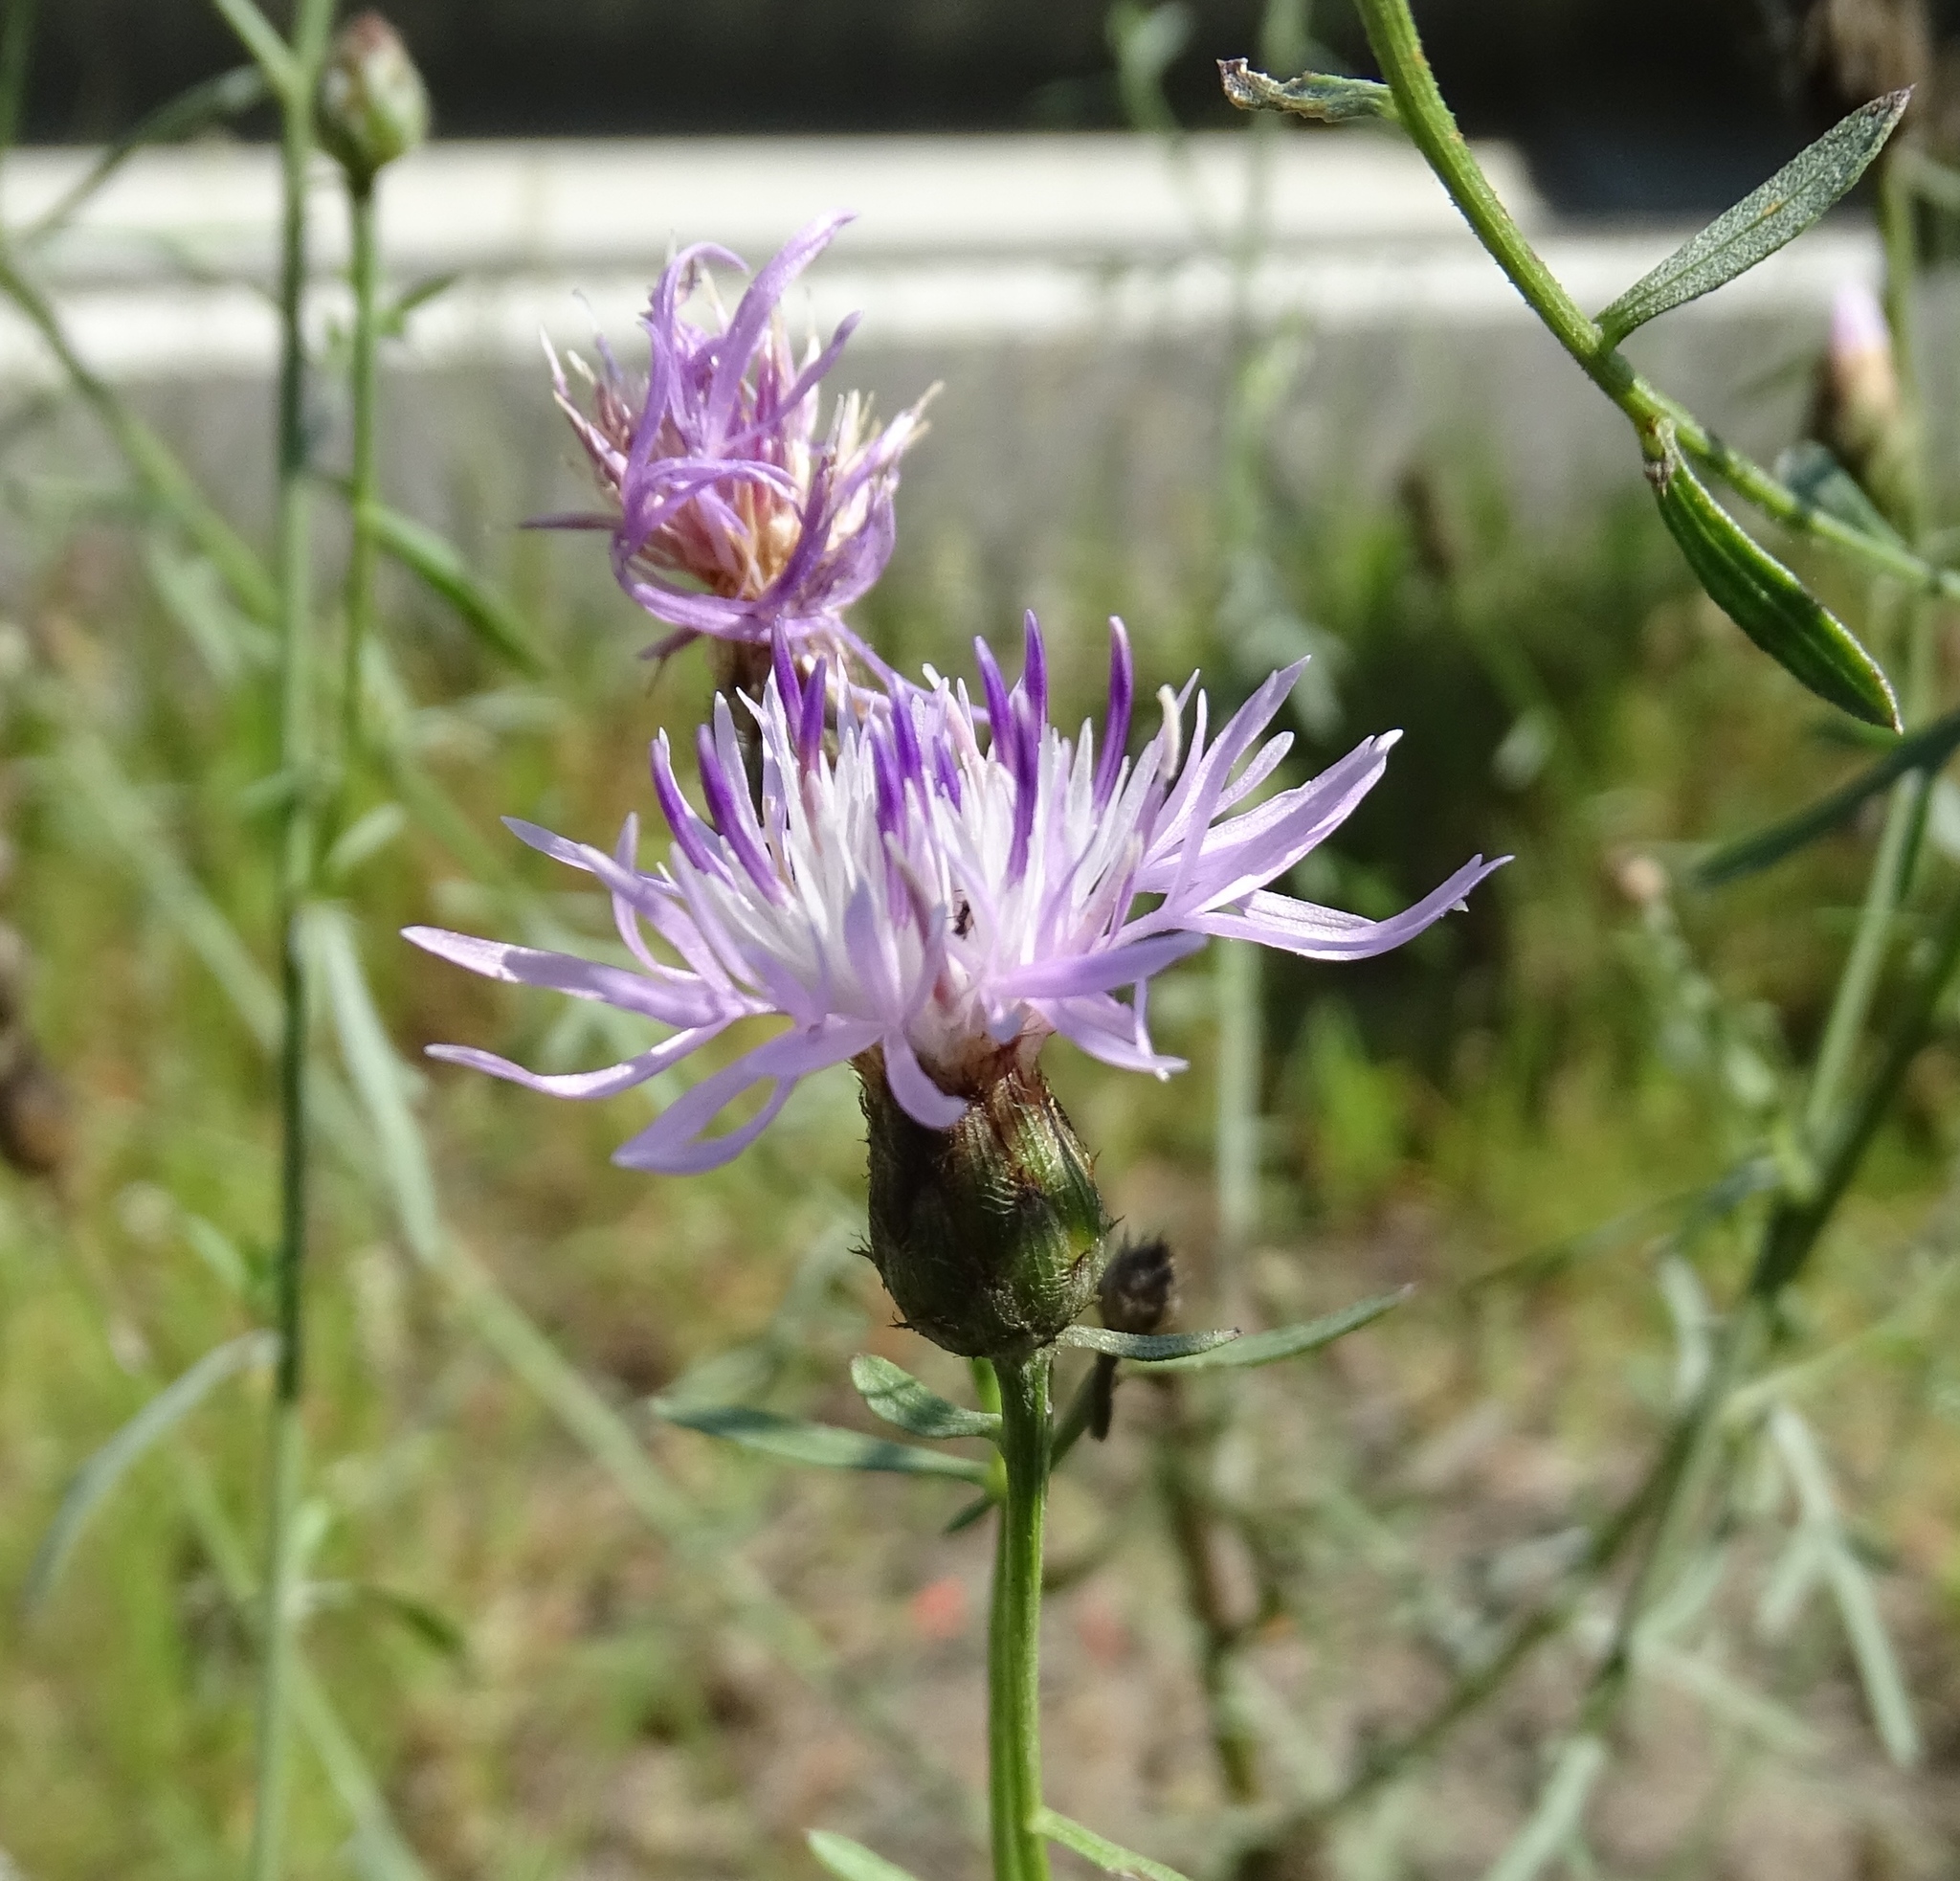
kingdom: Plantae
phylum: Tracheophyta
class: Magnoliopsida
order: Asterales
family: Asteraceae
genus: Centaurea
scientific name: Centaurea nigrescens
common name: Tyrol knapweed
